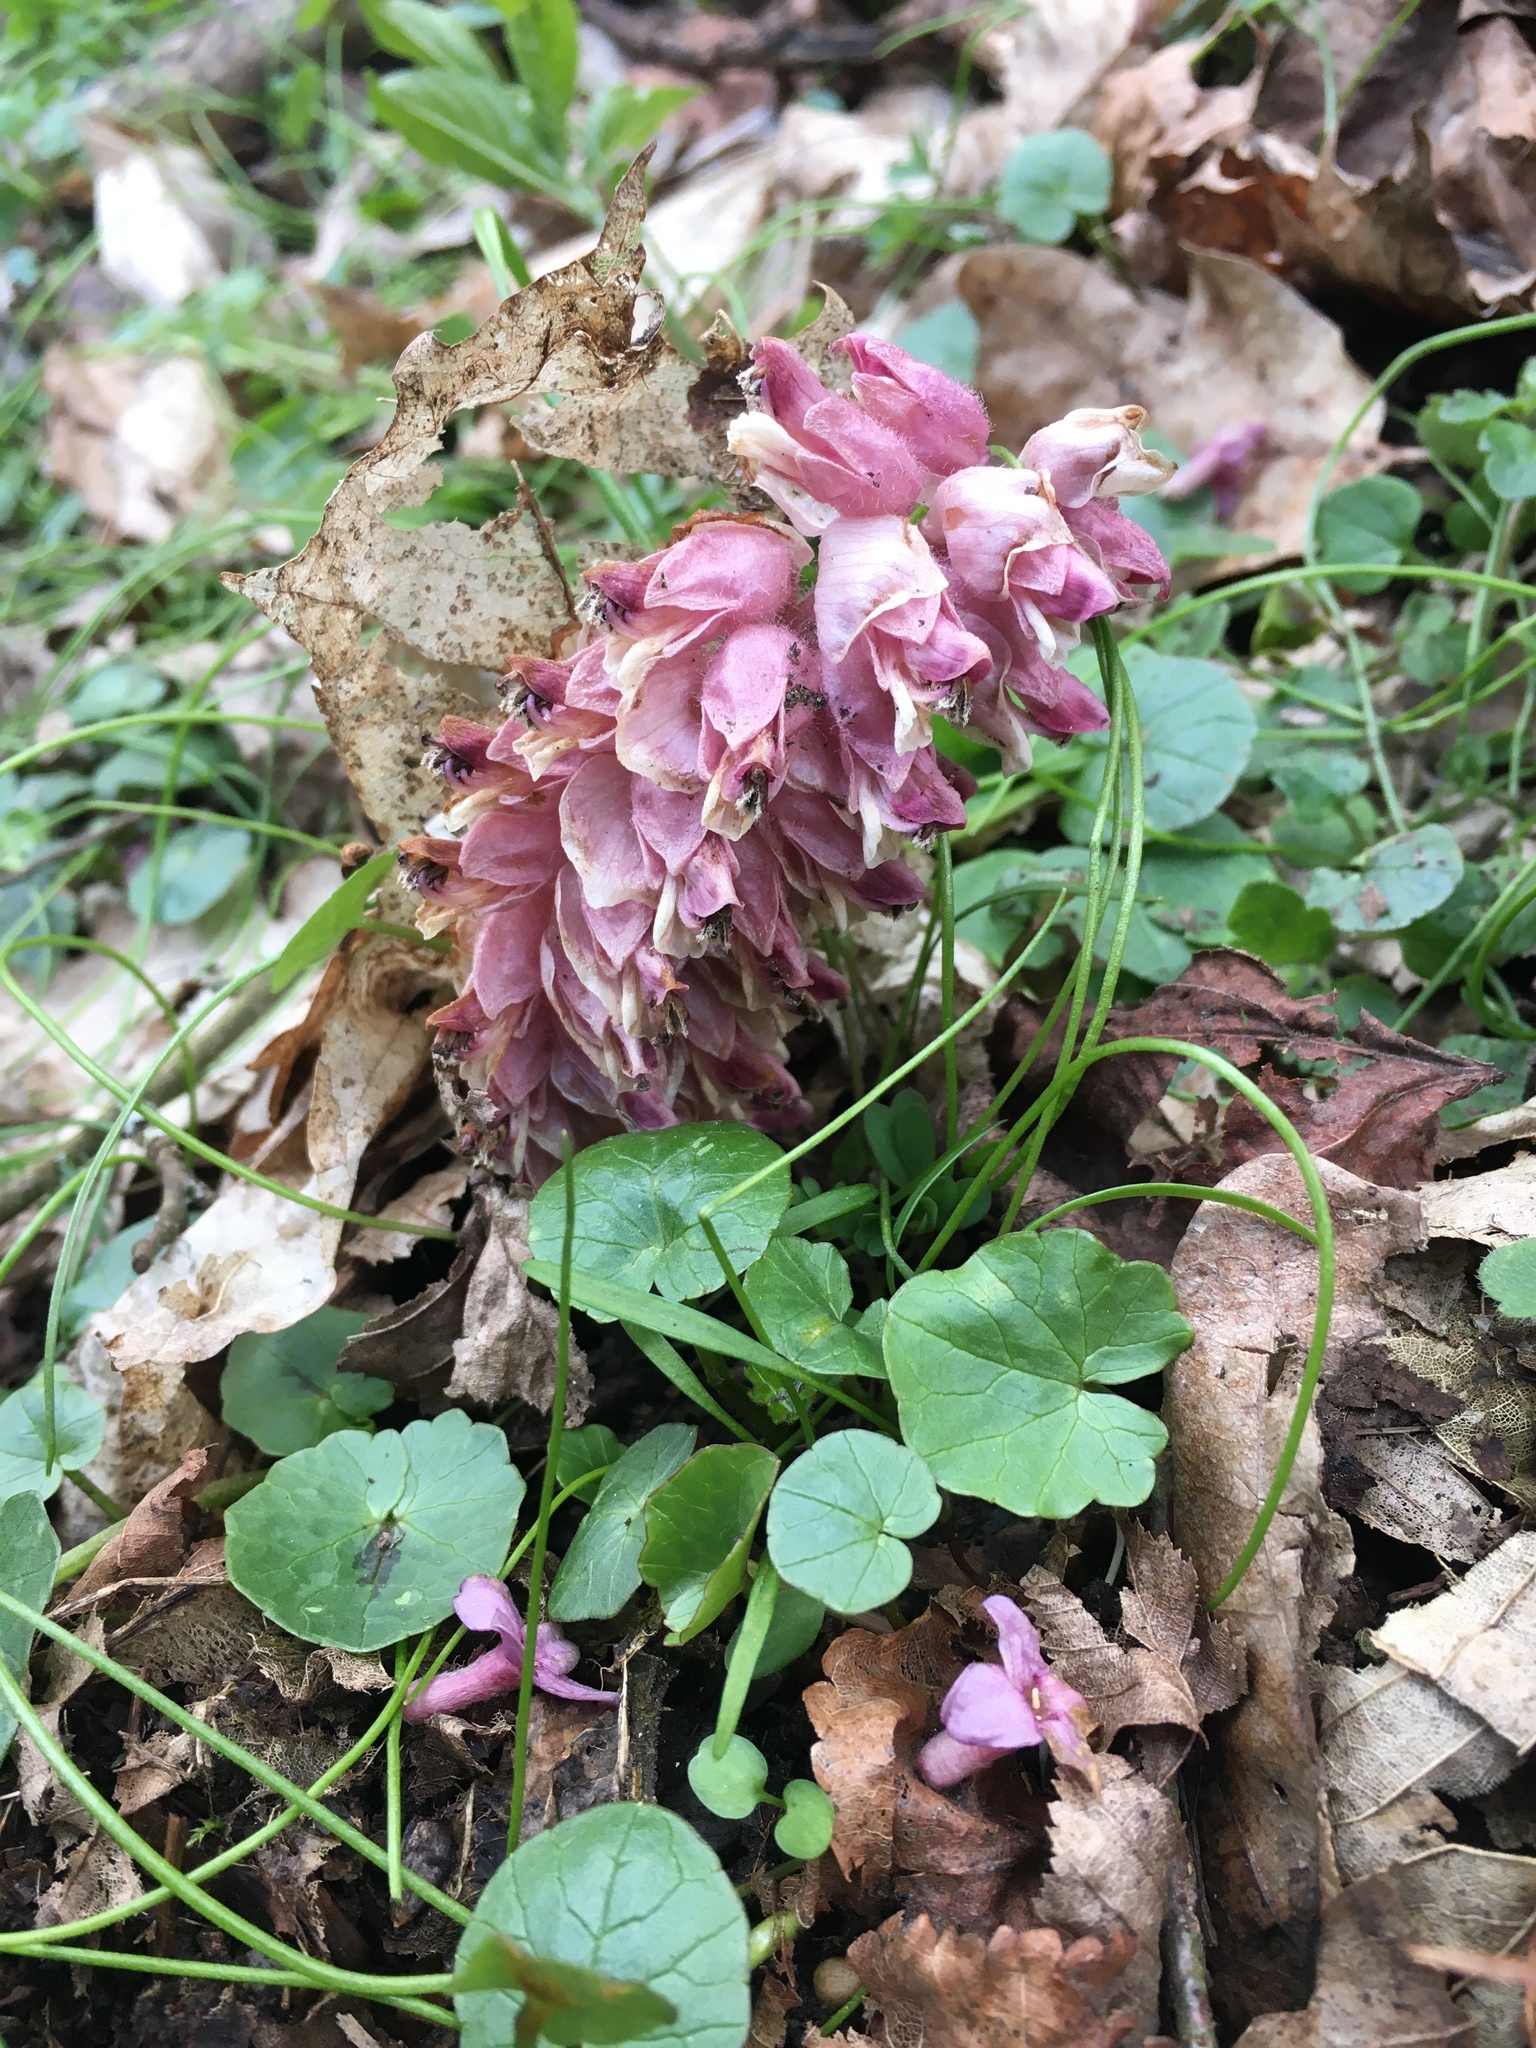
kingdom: Plantae
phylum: Tracheophyta
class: Magnoliopsida
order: Lamiales
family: Orobanchaceae
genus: Lathraea
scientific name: Lathraea squamaria
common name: Toothwort
